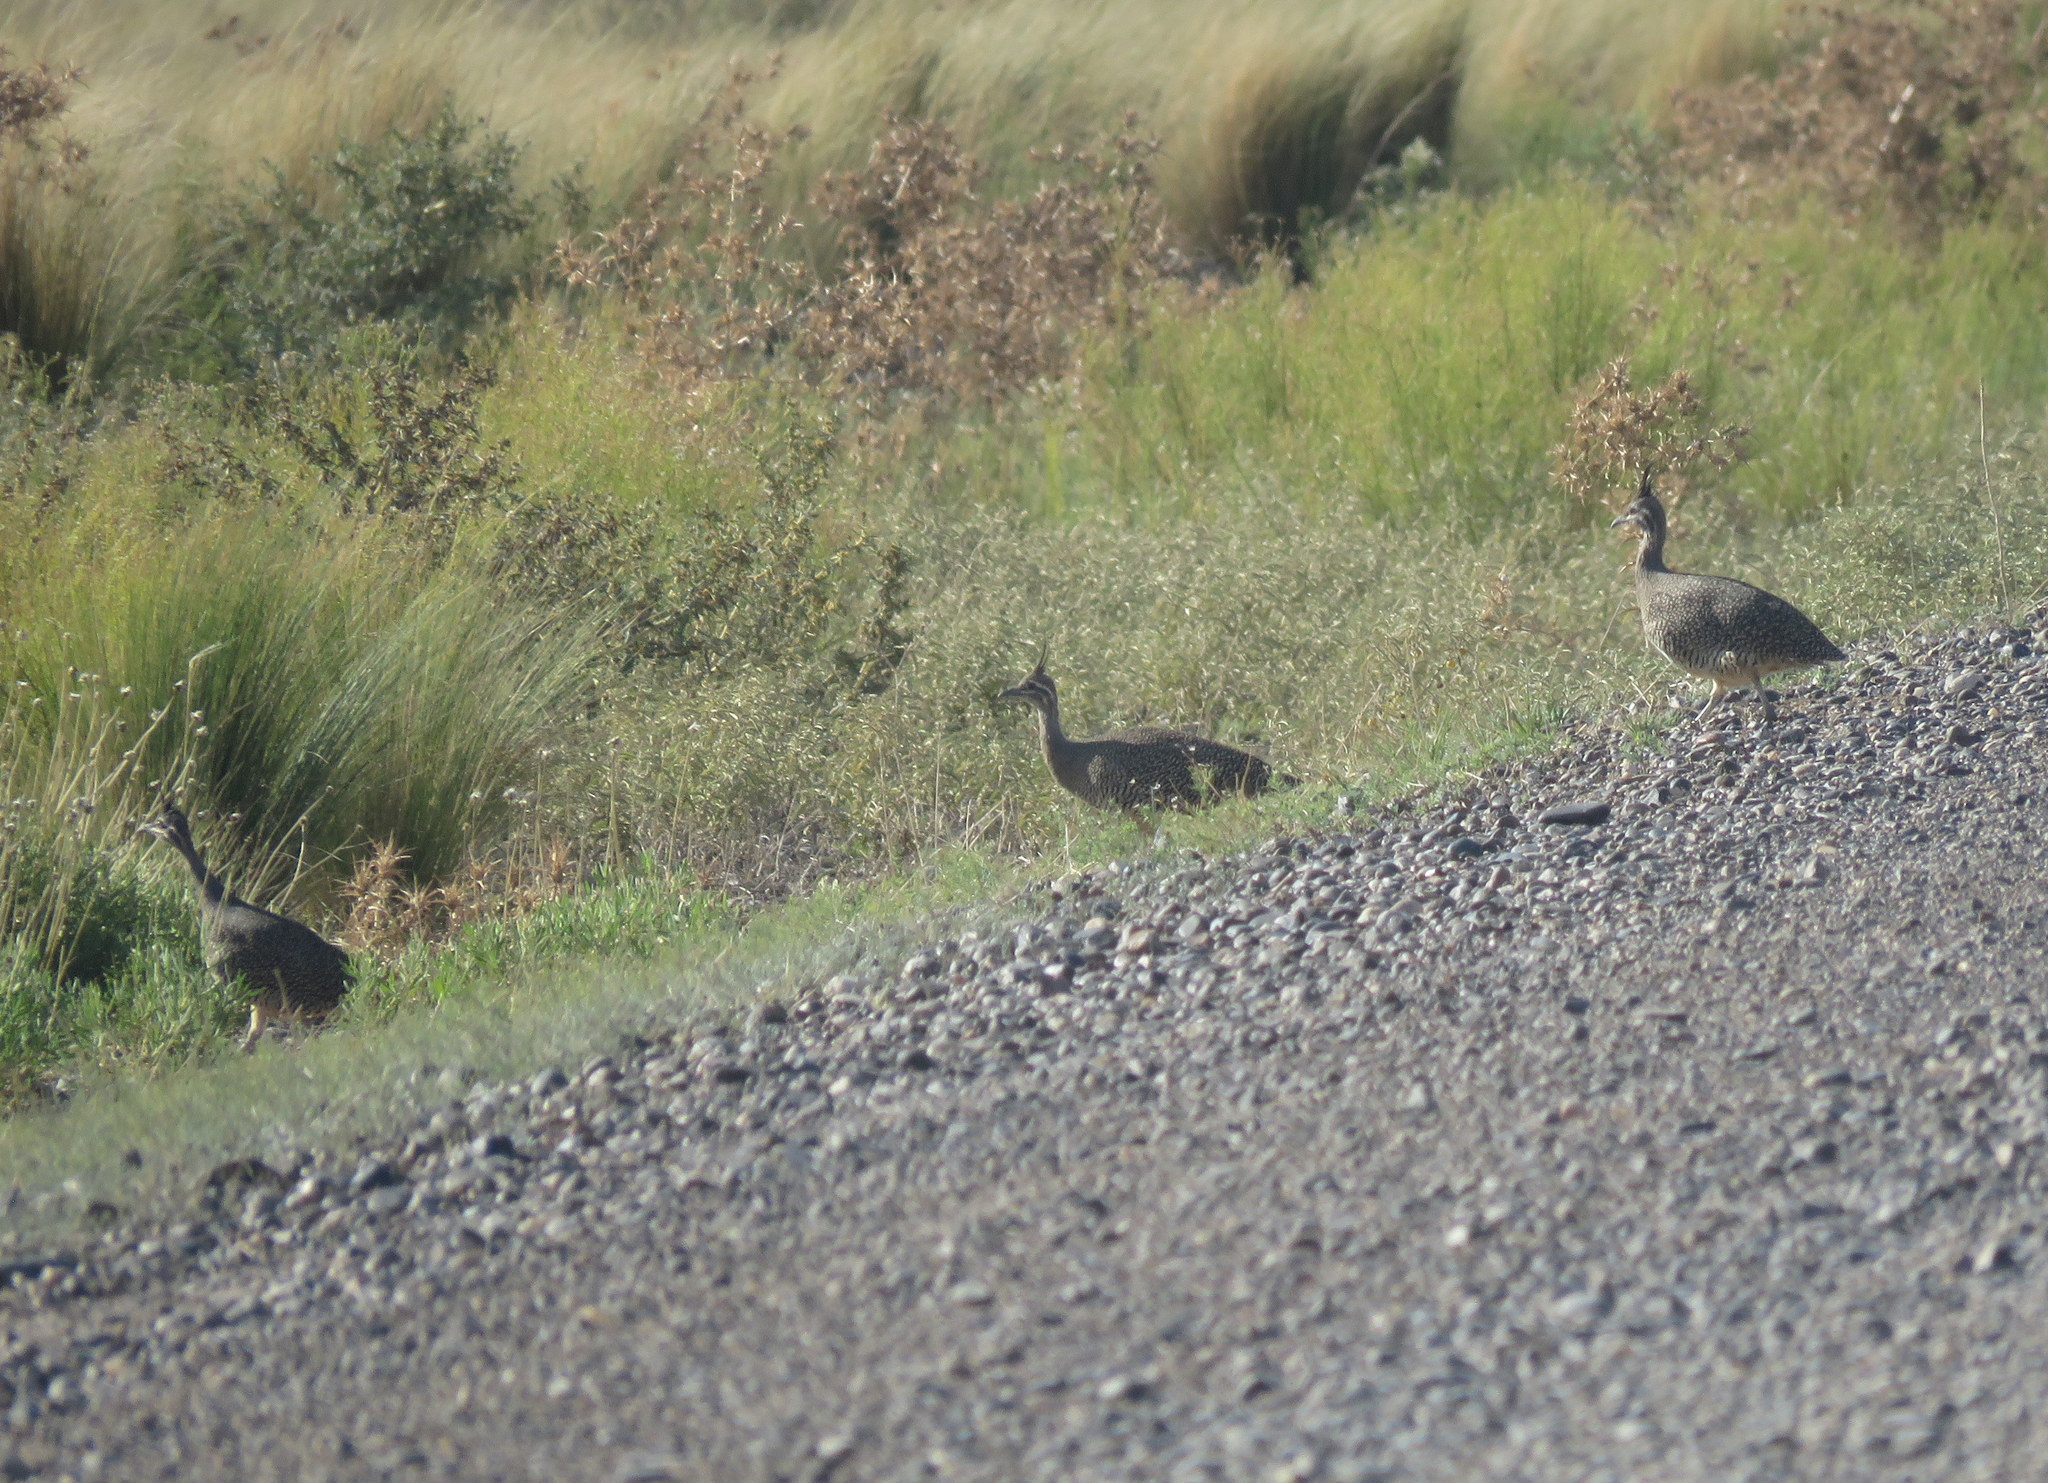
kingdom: Animalia
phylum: Chordata
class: Aves
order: Tinamiformes
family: Tinamidae
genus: Eudromia
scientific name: Eudromia elegans
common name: Elegant crested tinamou
